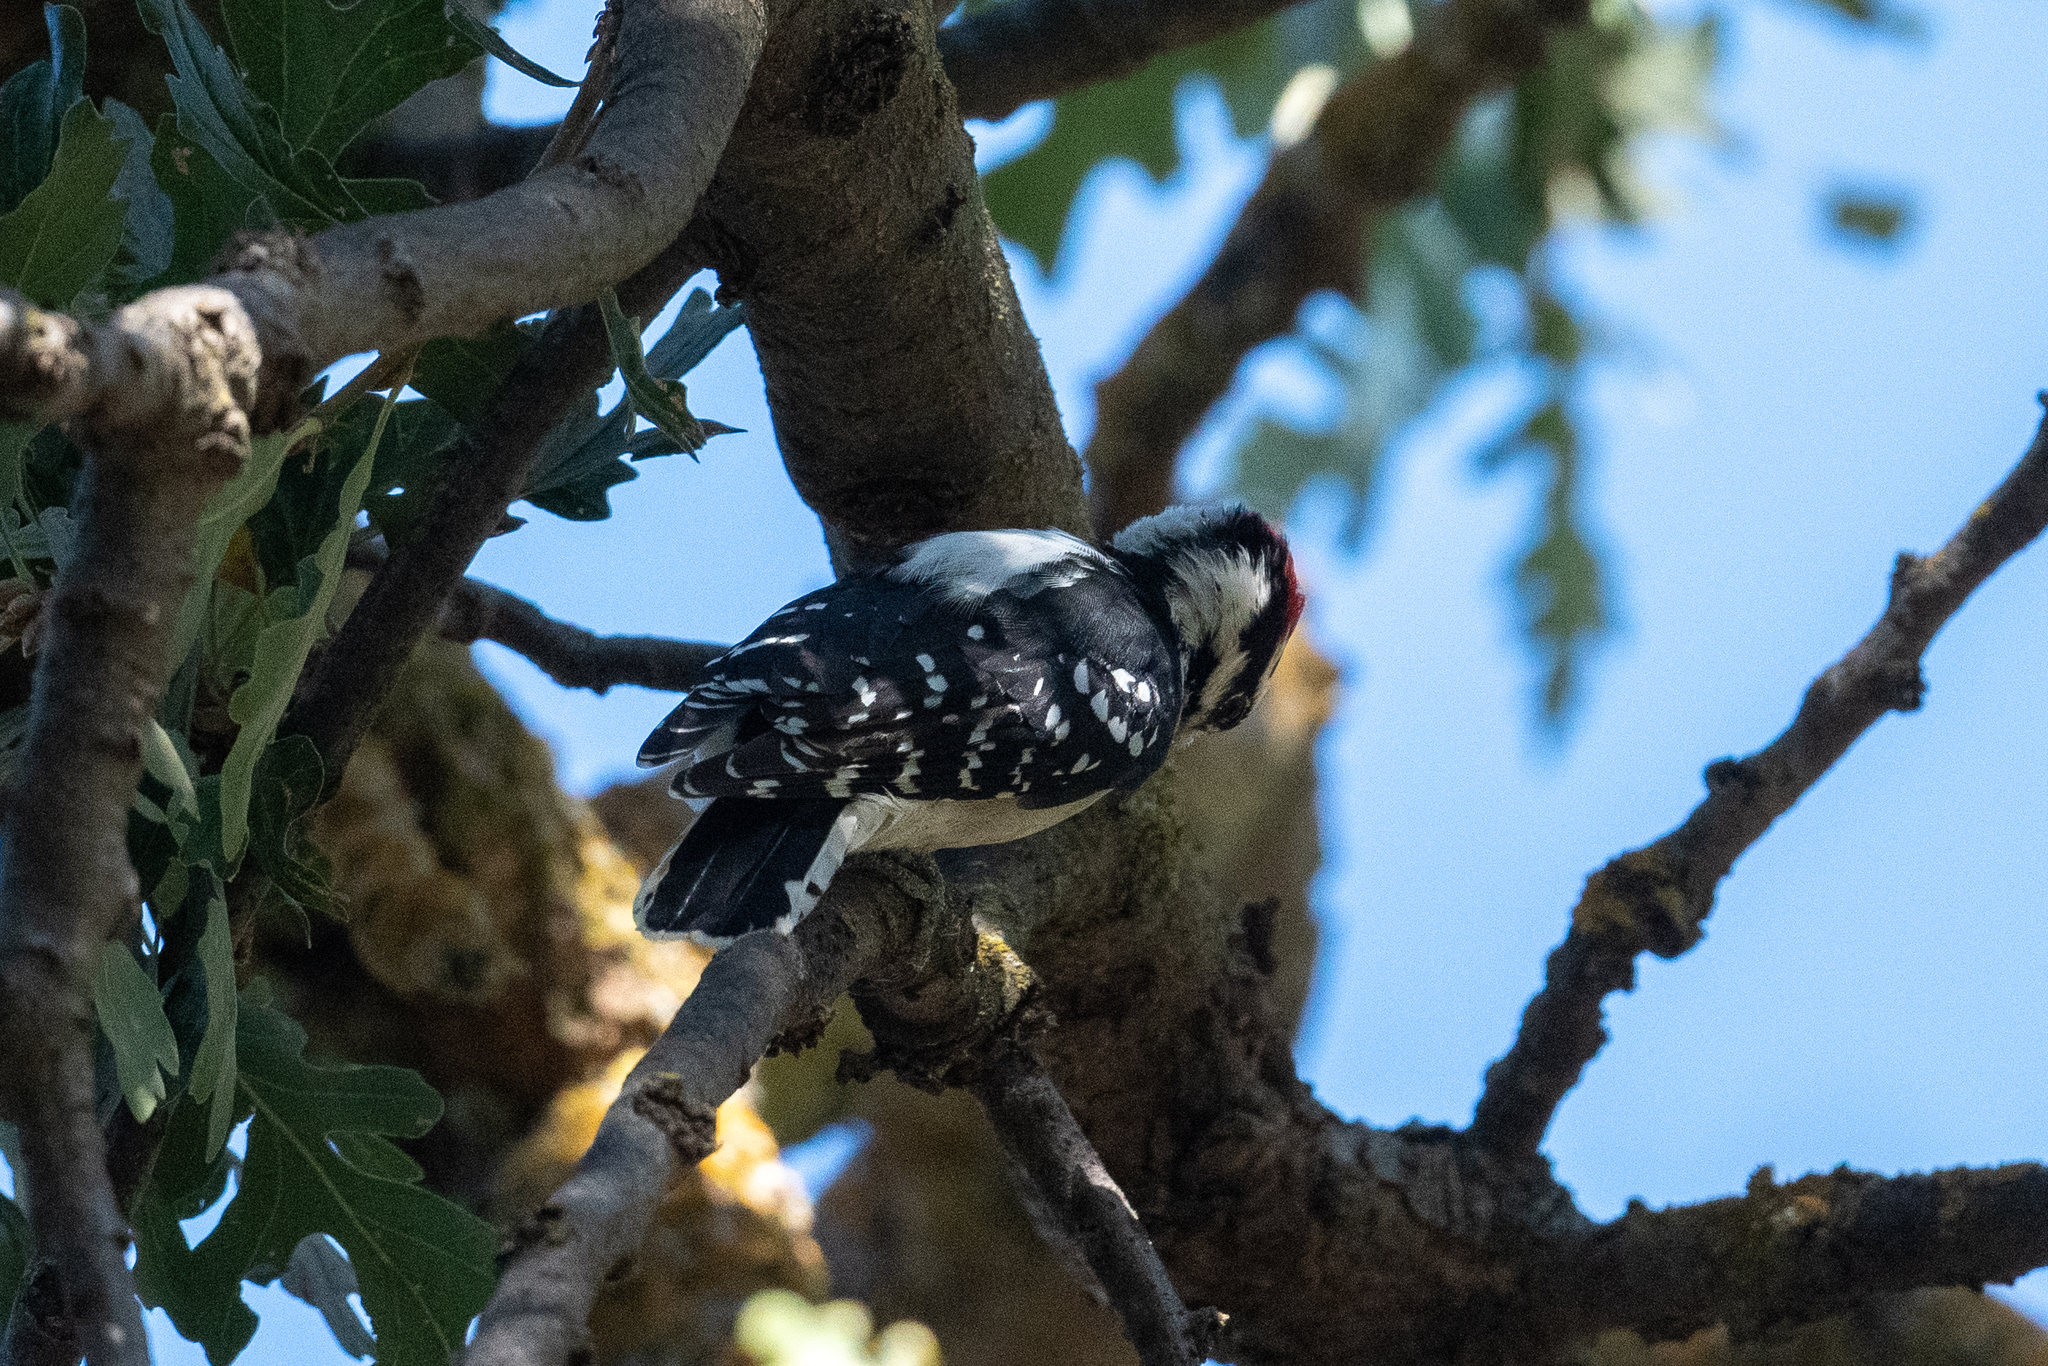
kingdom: Animalia
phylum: Chordata
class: Aves
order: Piciformes
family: Picidae
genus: Dryobates
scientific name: Dryobates pubescens
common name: Downy woodpecker
